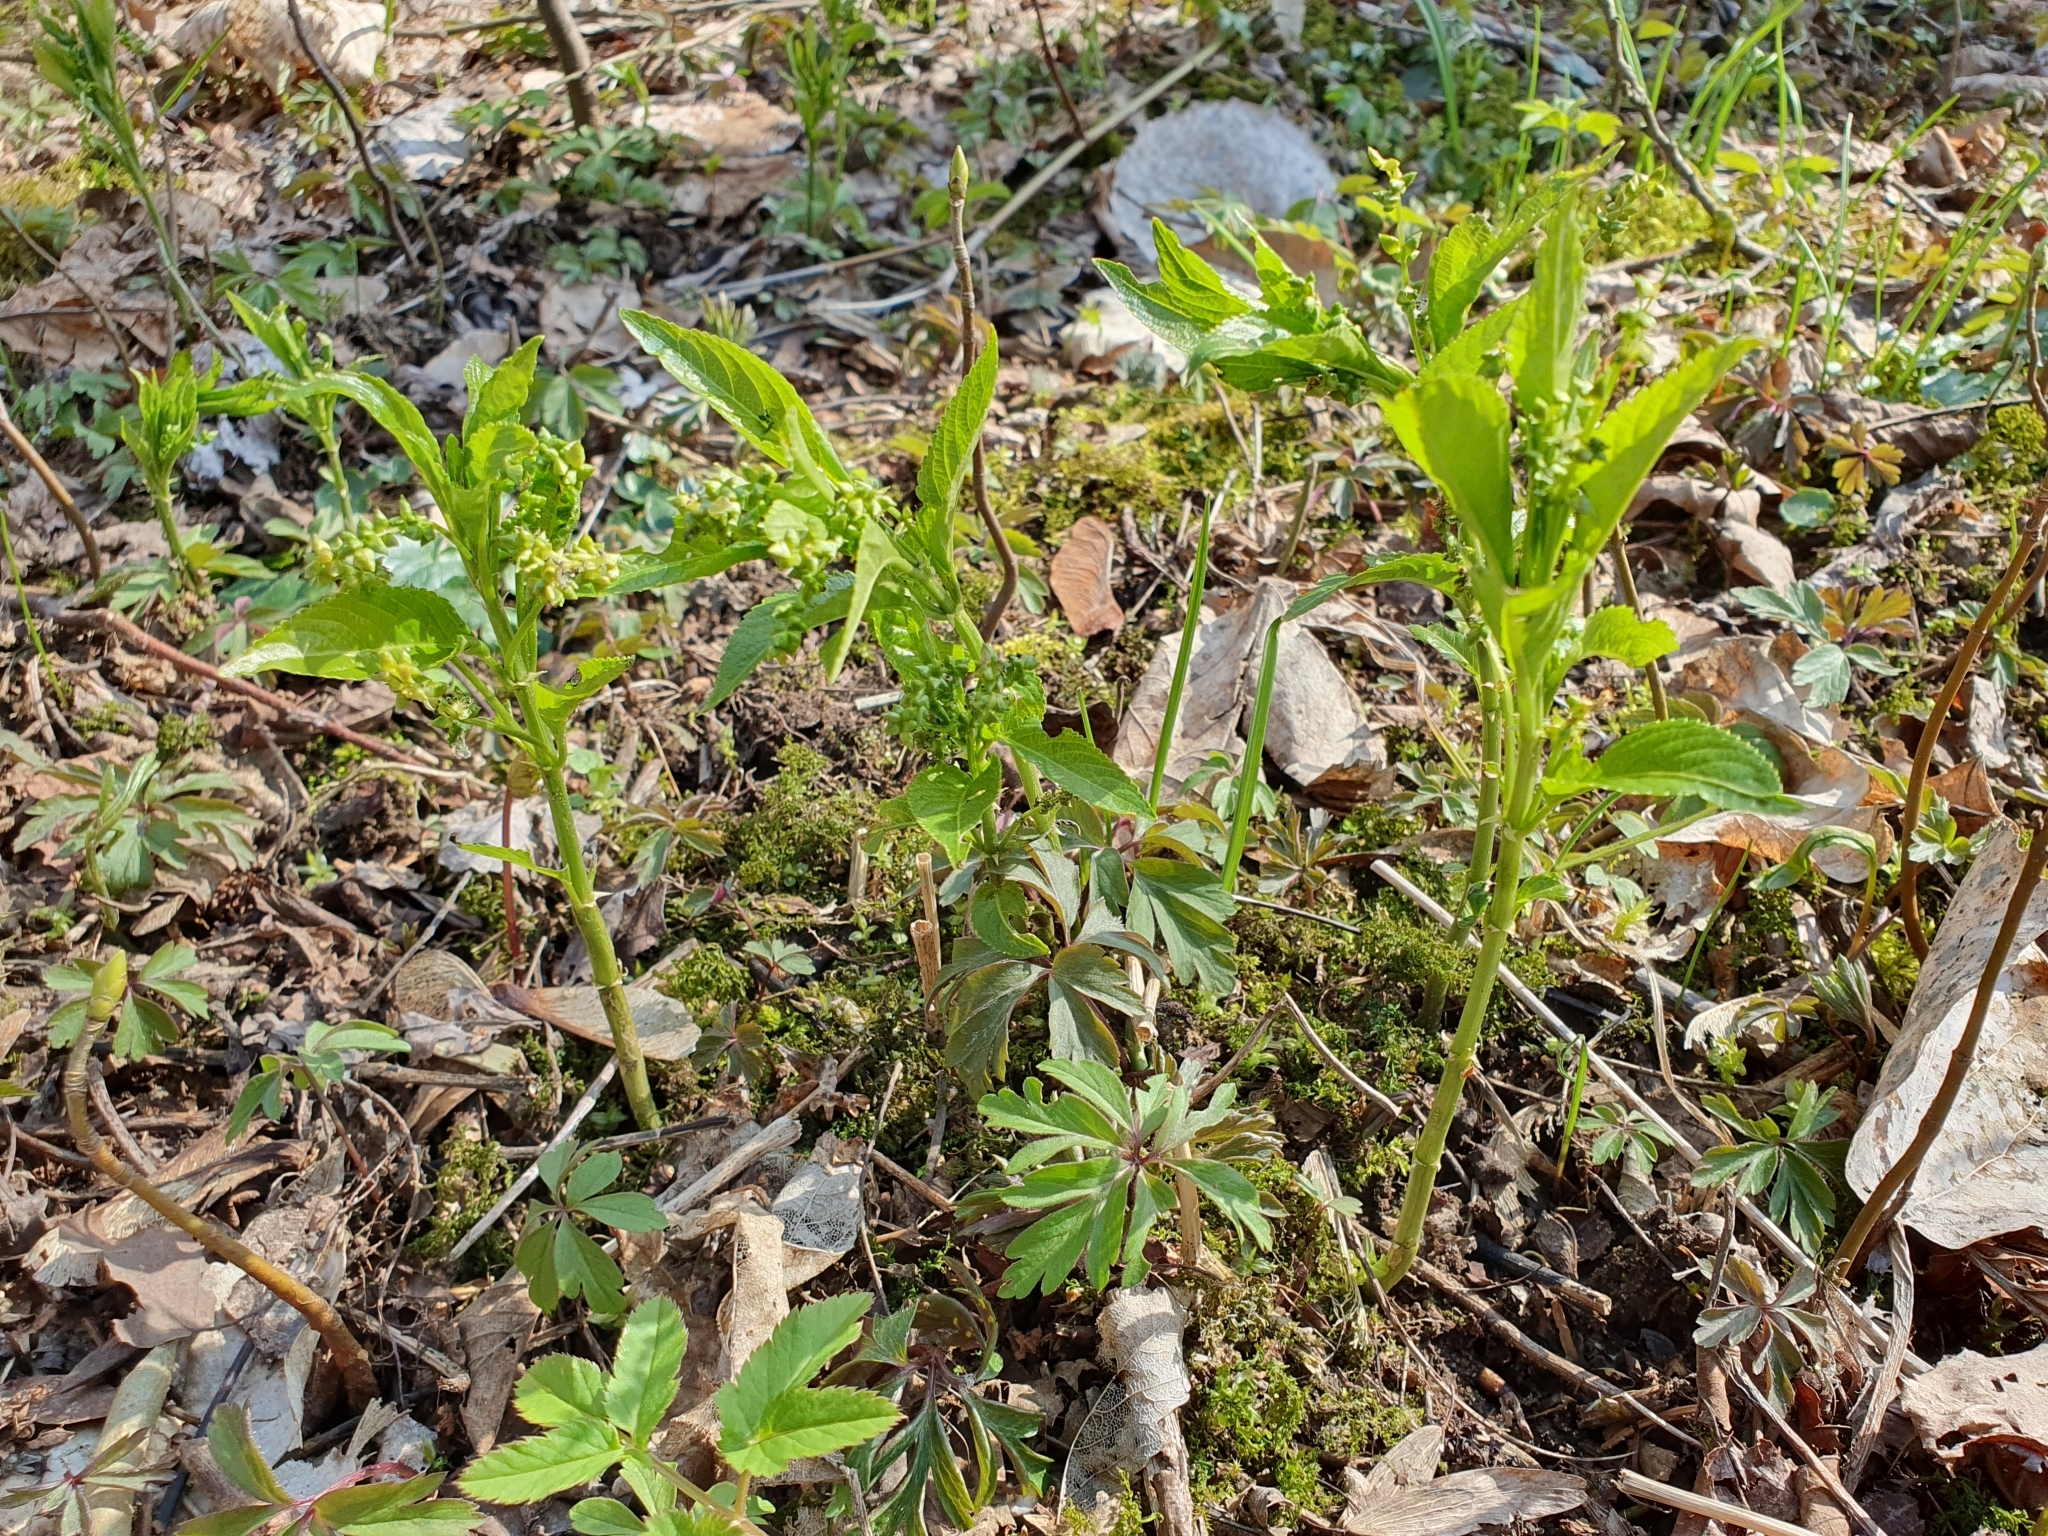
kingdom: Plantae
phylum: Tracheophyta
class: Magnoliopsida
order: Malpighiales
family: Euphorbiaceae
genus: Mercurialis
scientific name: Mercurialis perennis
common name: Dog mercury
